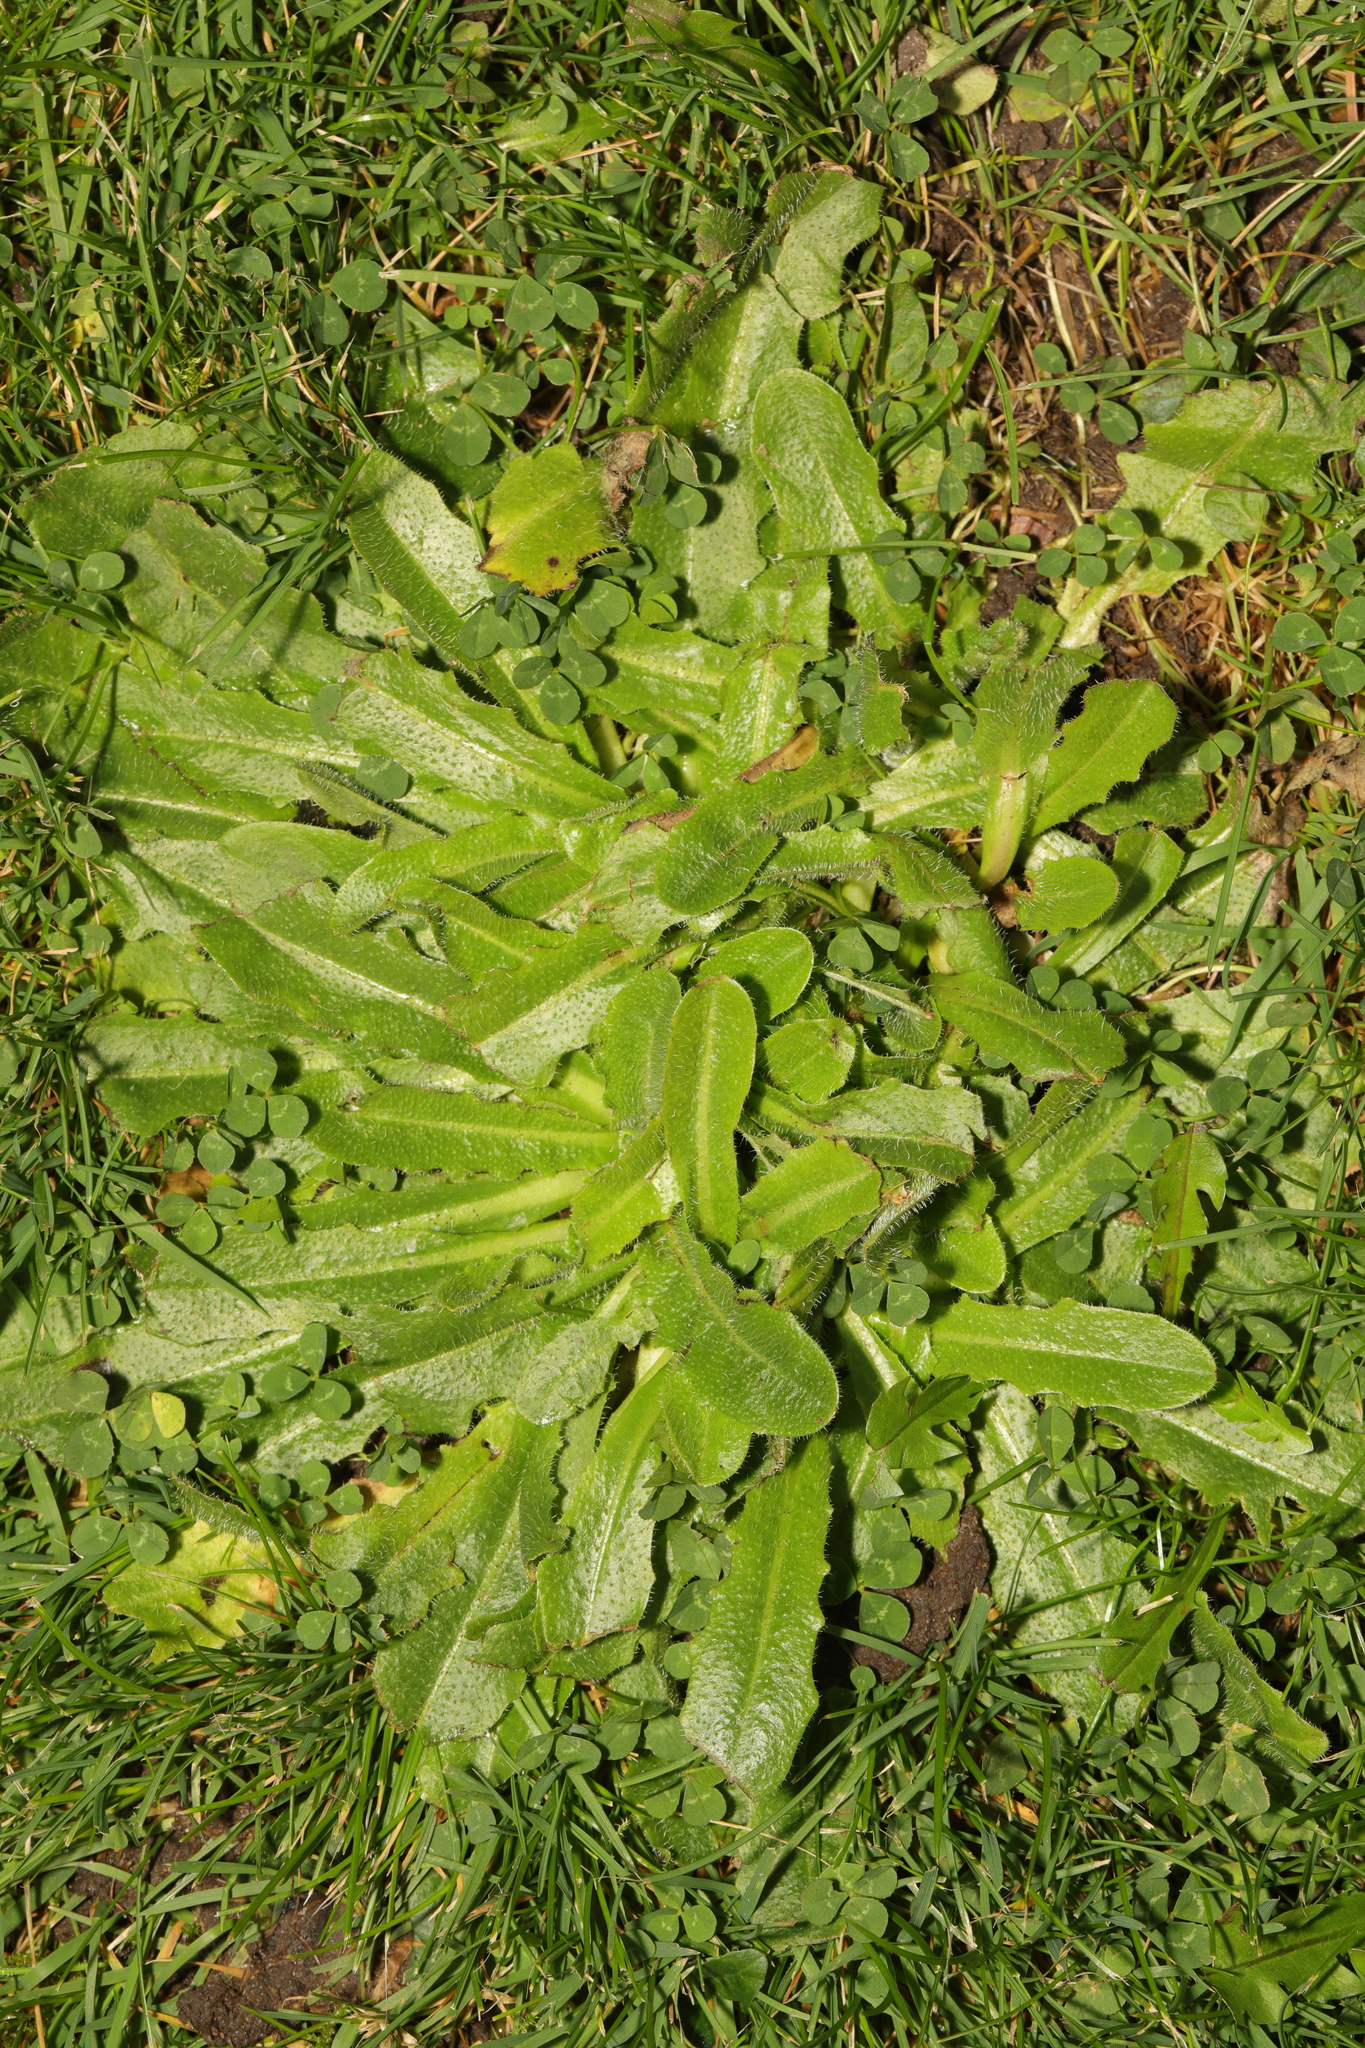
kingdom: Plantae
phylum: Tracheophyta
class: Magnoliopsida
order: Asterales
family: Asteraceae
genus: Hypochaeris
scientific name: Hypochaeris radicata
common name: Flatweed
